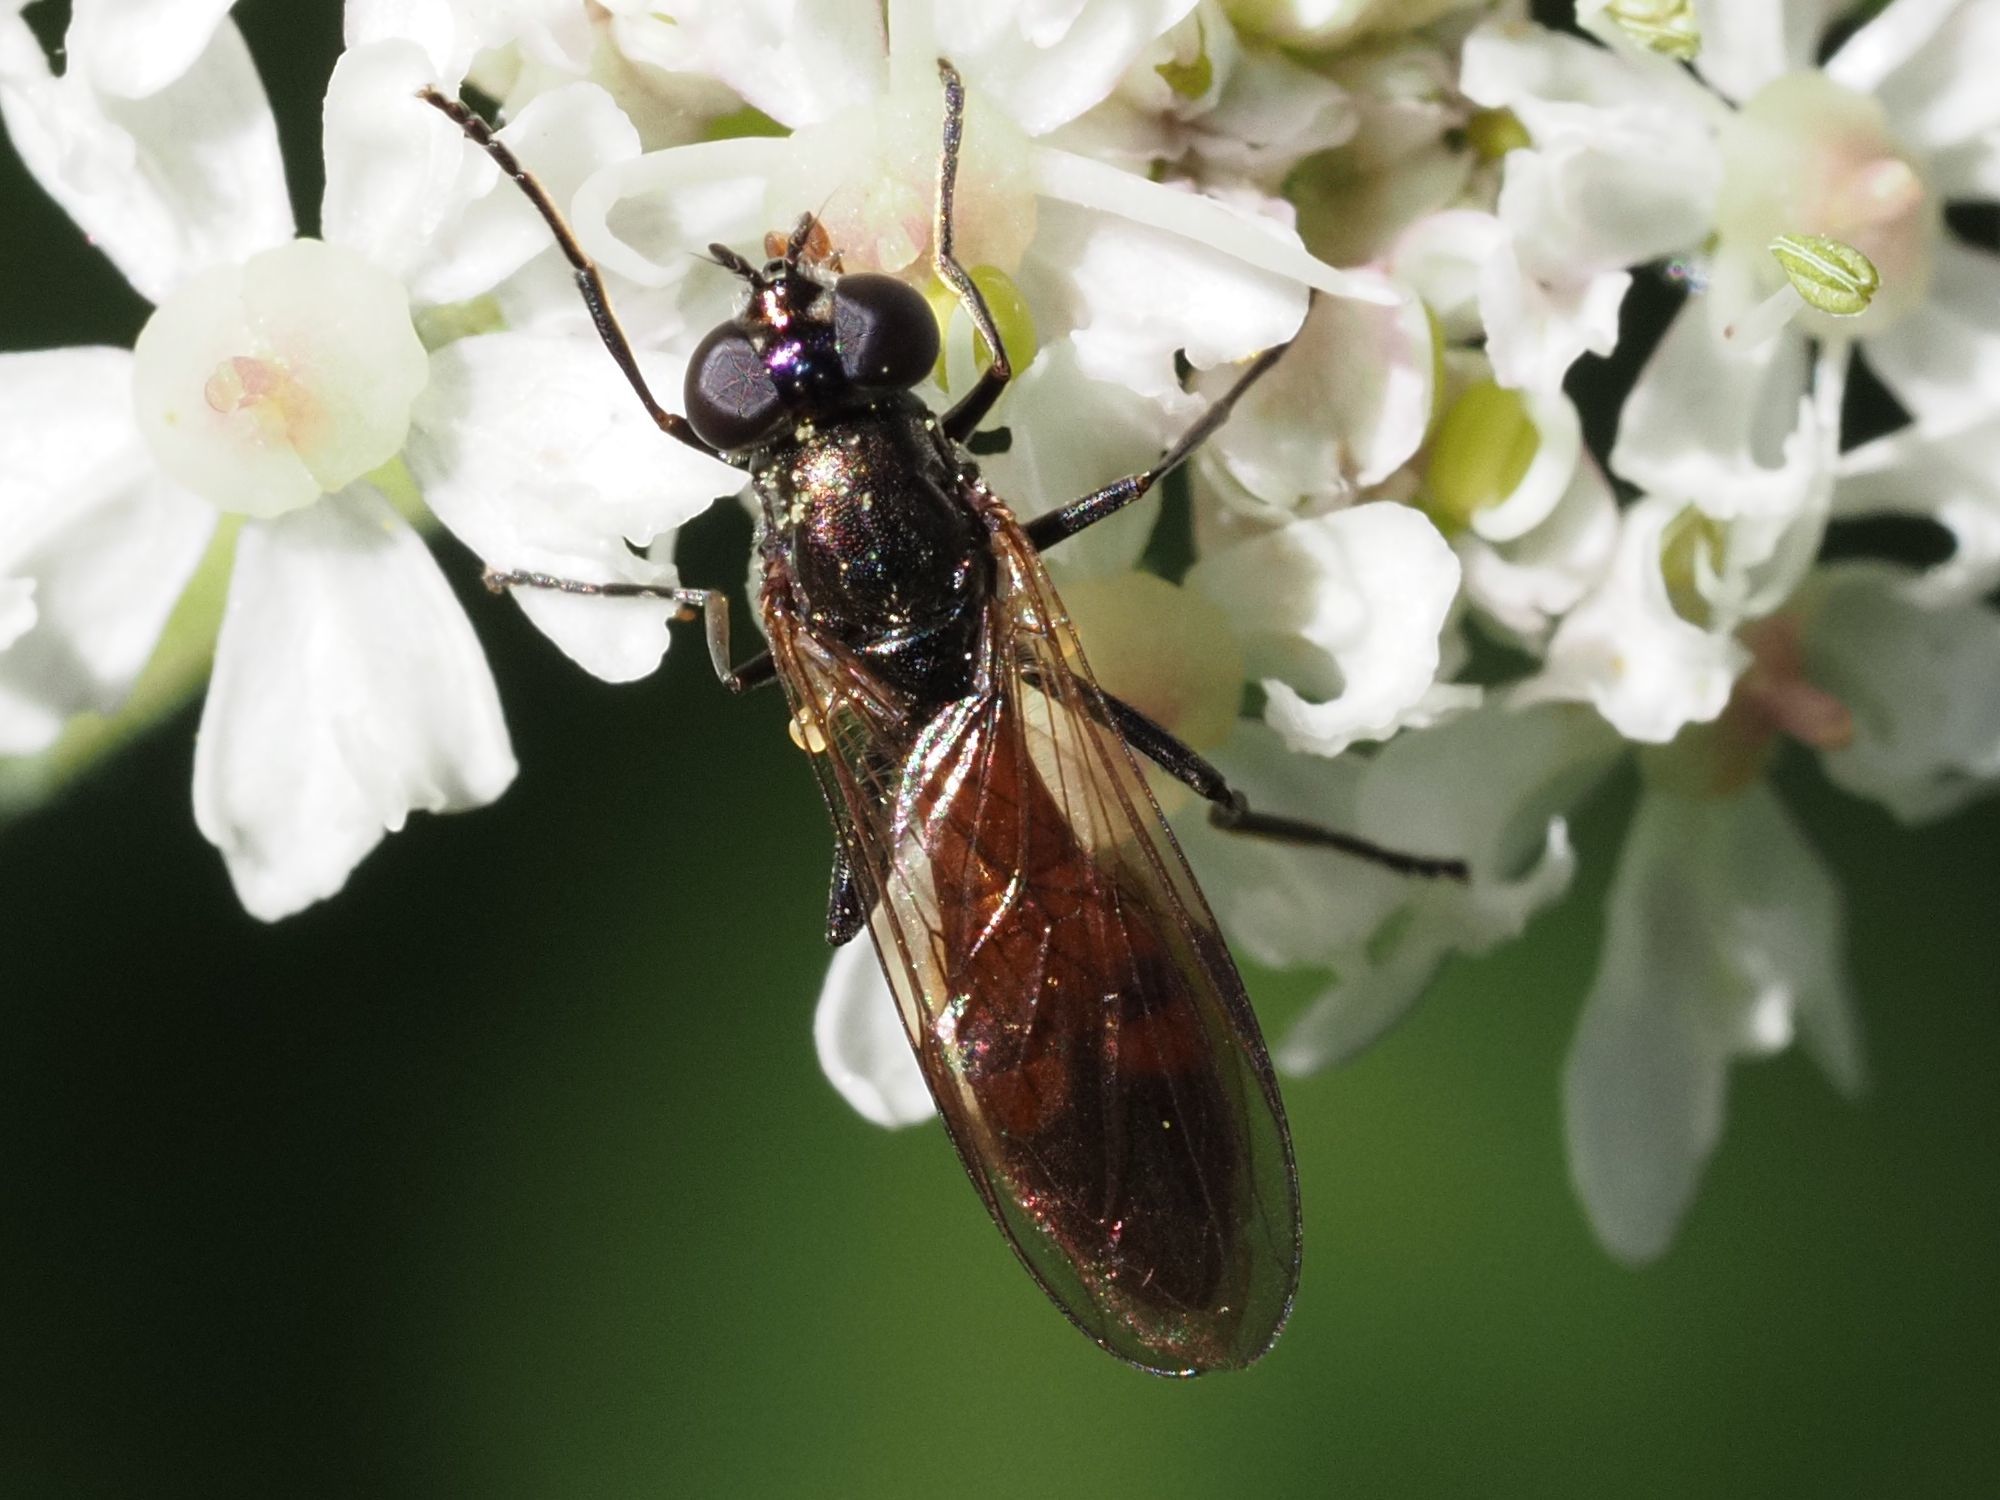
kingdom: Animalia
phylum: Arthropoda
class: Insecta
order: Diptera
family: Syrphidae
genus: Spazigaster
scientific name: Spazigaster ambulans
